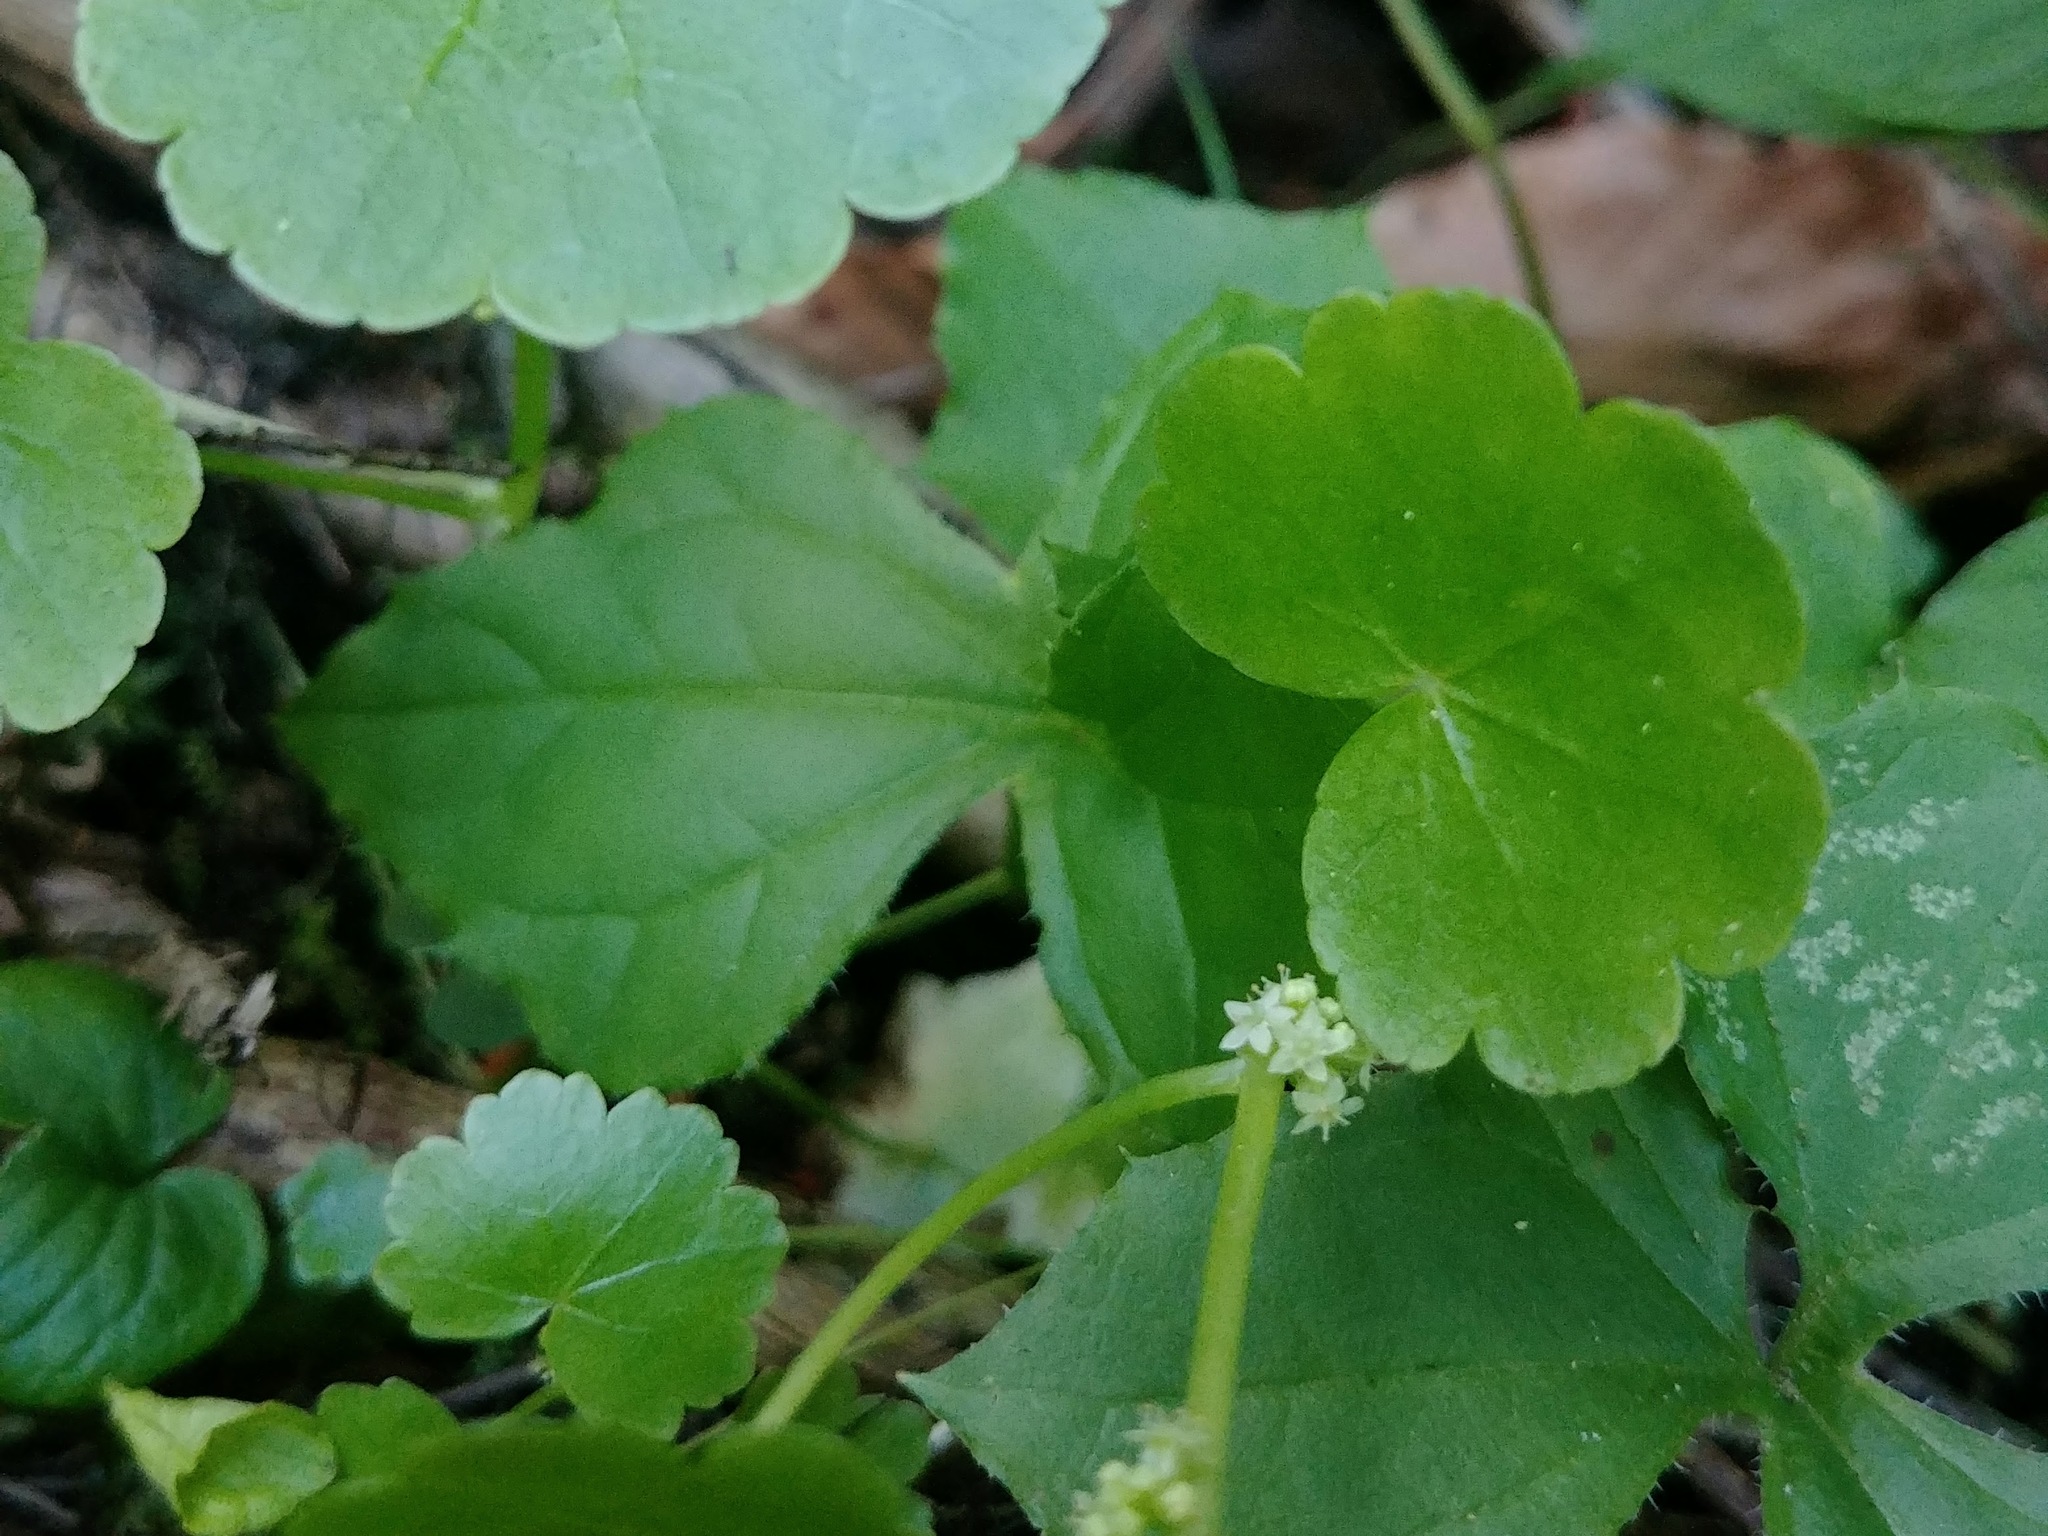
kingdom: Plantae
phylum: Tracheophyta
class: Magnoliopsida
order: Apiales
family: Araliaceae
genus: Hydrocotyle
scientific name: Hydrocotyle americana
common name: American water-pennywort
